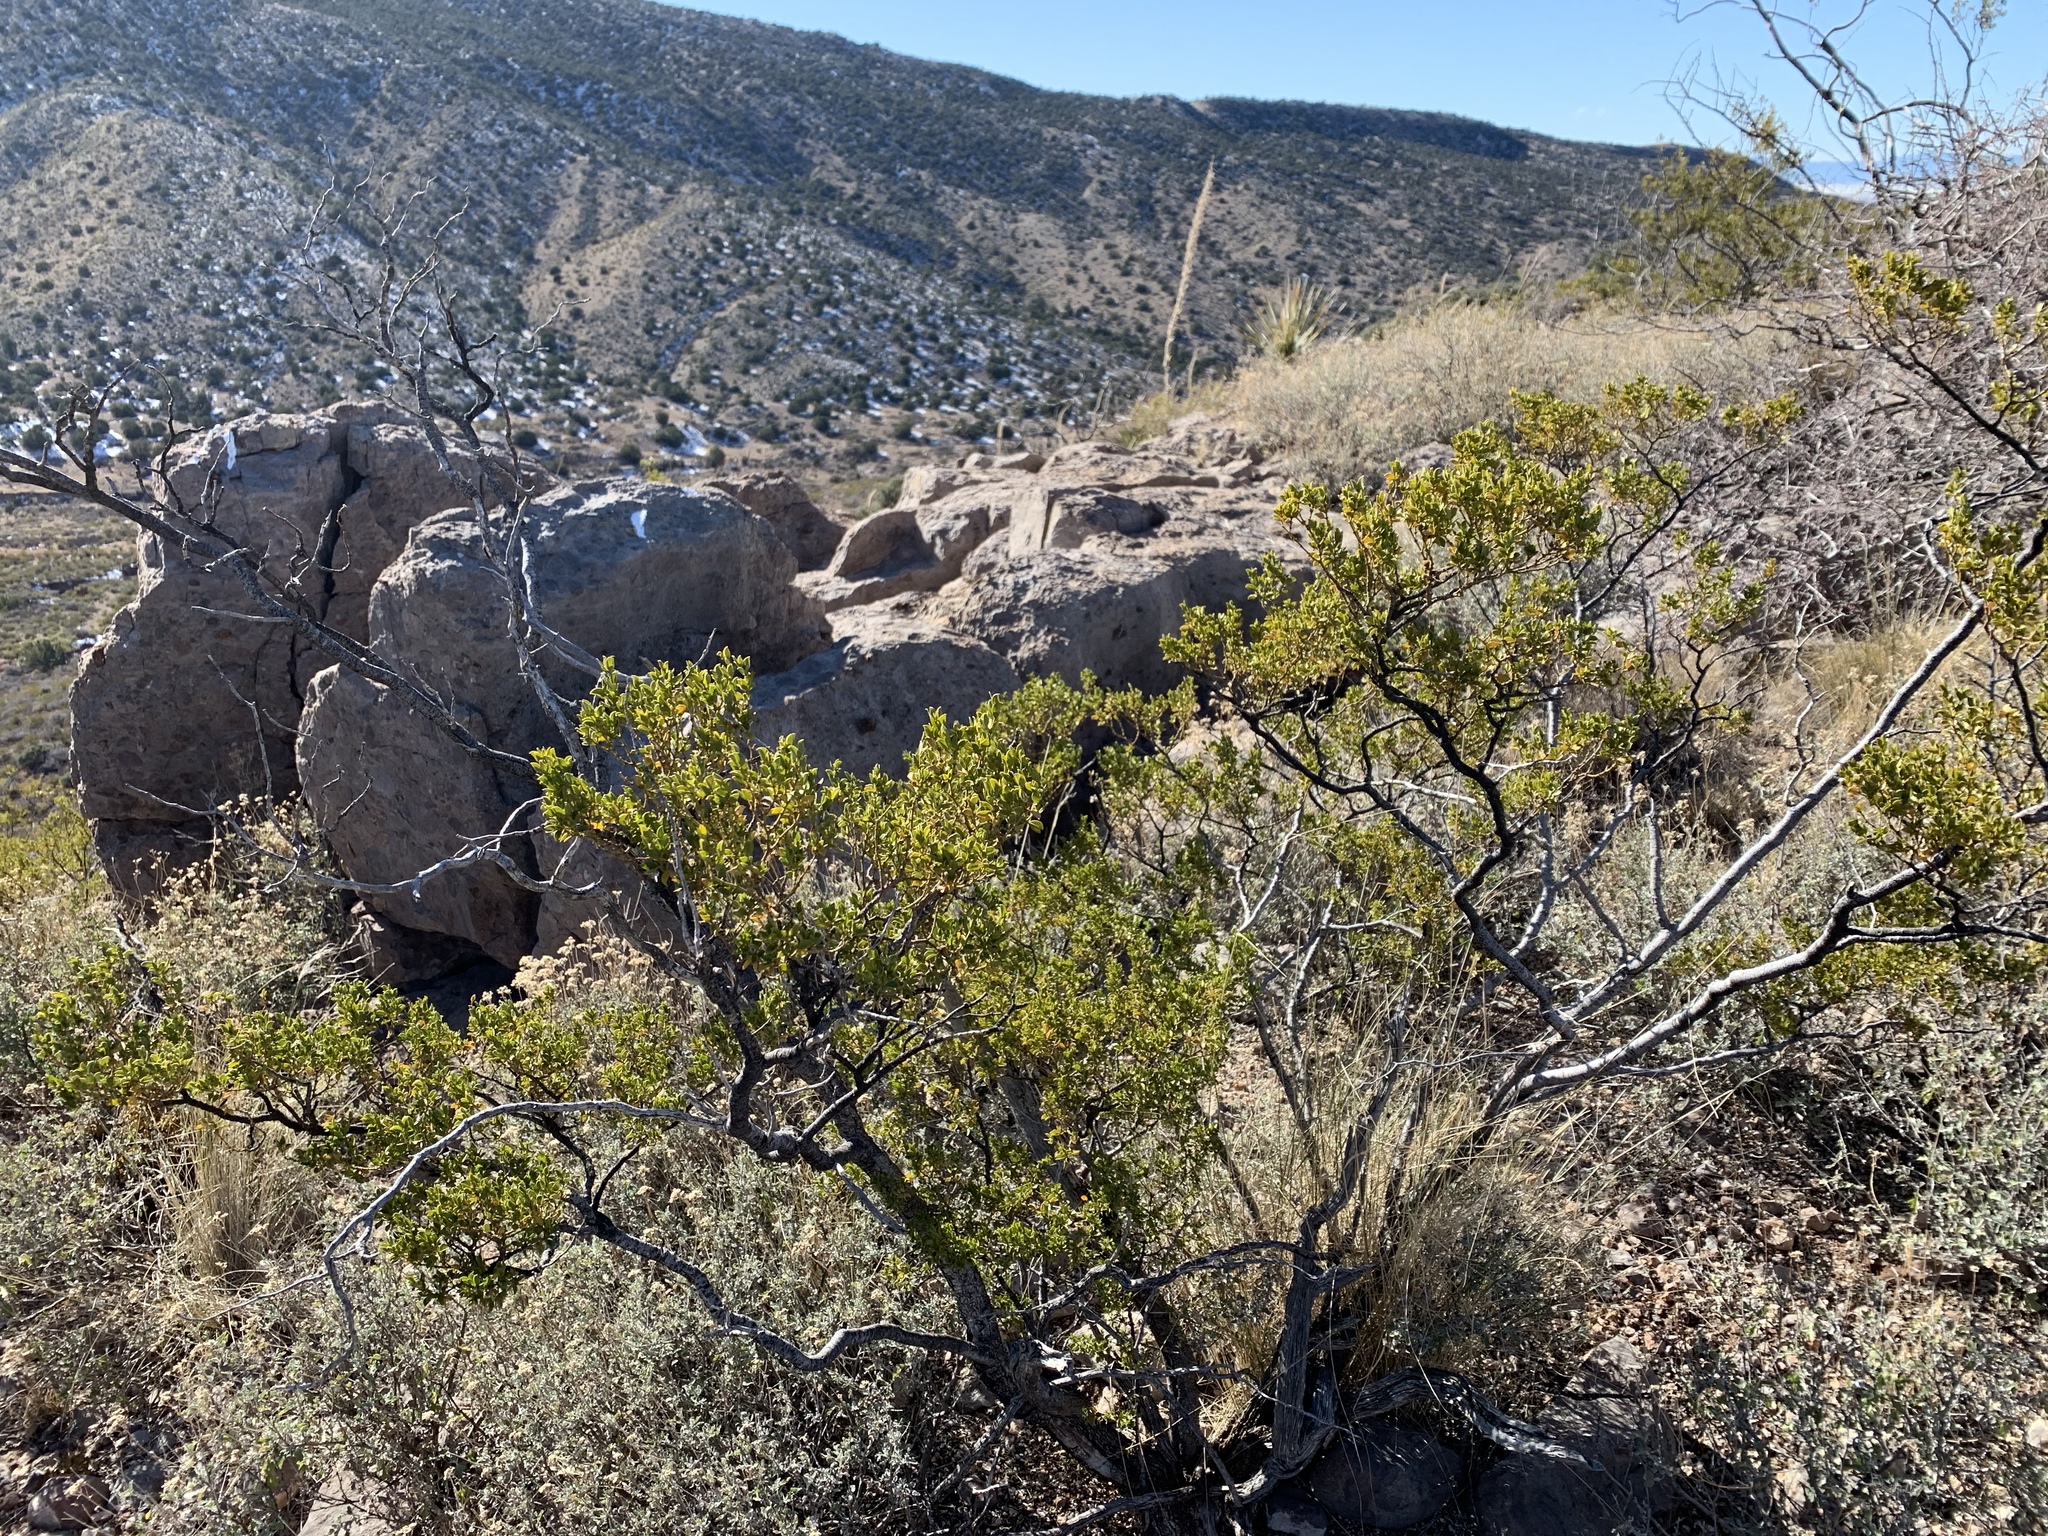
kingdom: Plantae
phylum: Tracheophyta
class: Magnoliopsida
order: Zygophyllales
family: Zygophyllaceae
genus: Larrea
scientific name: Larrea tridentata
